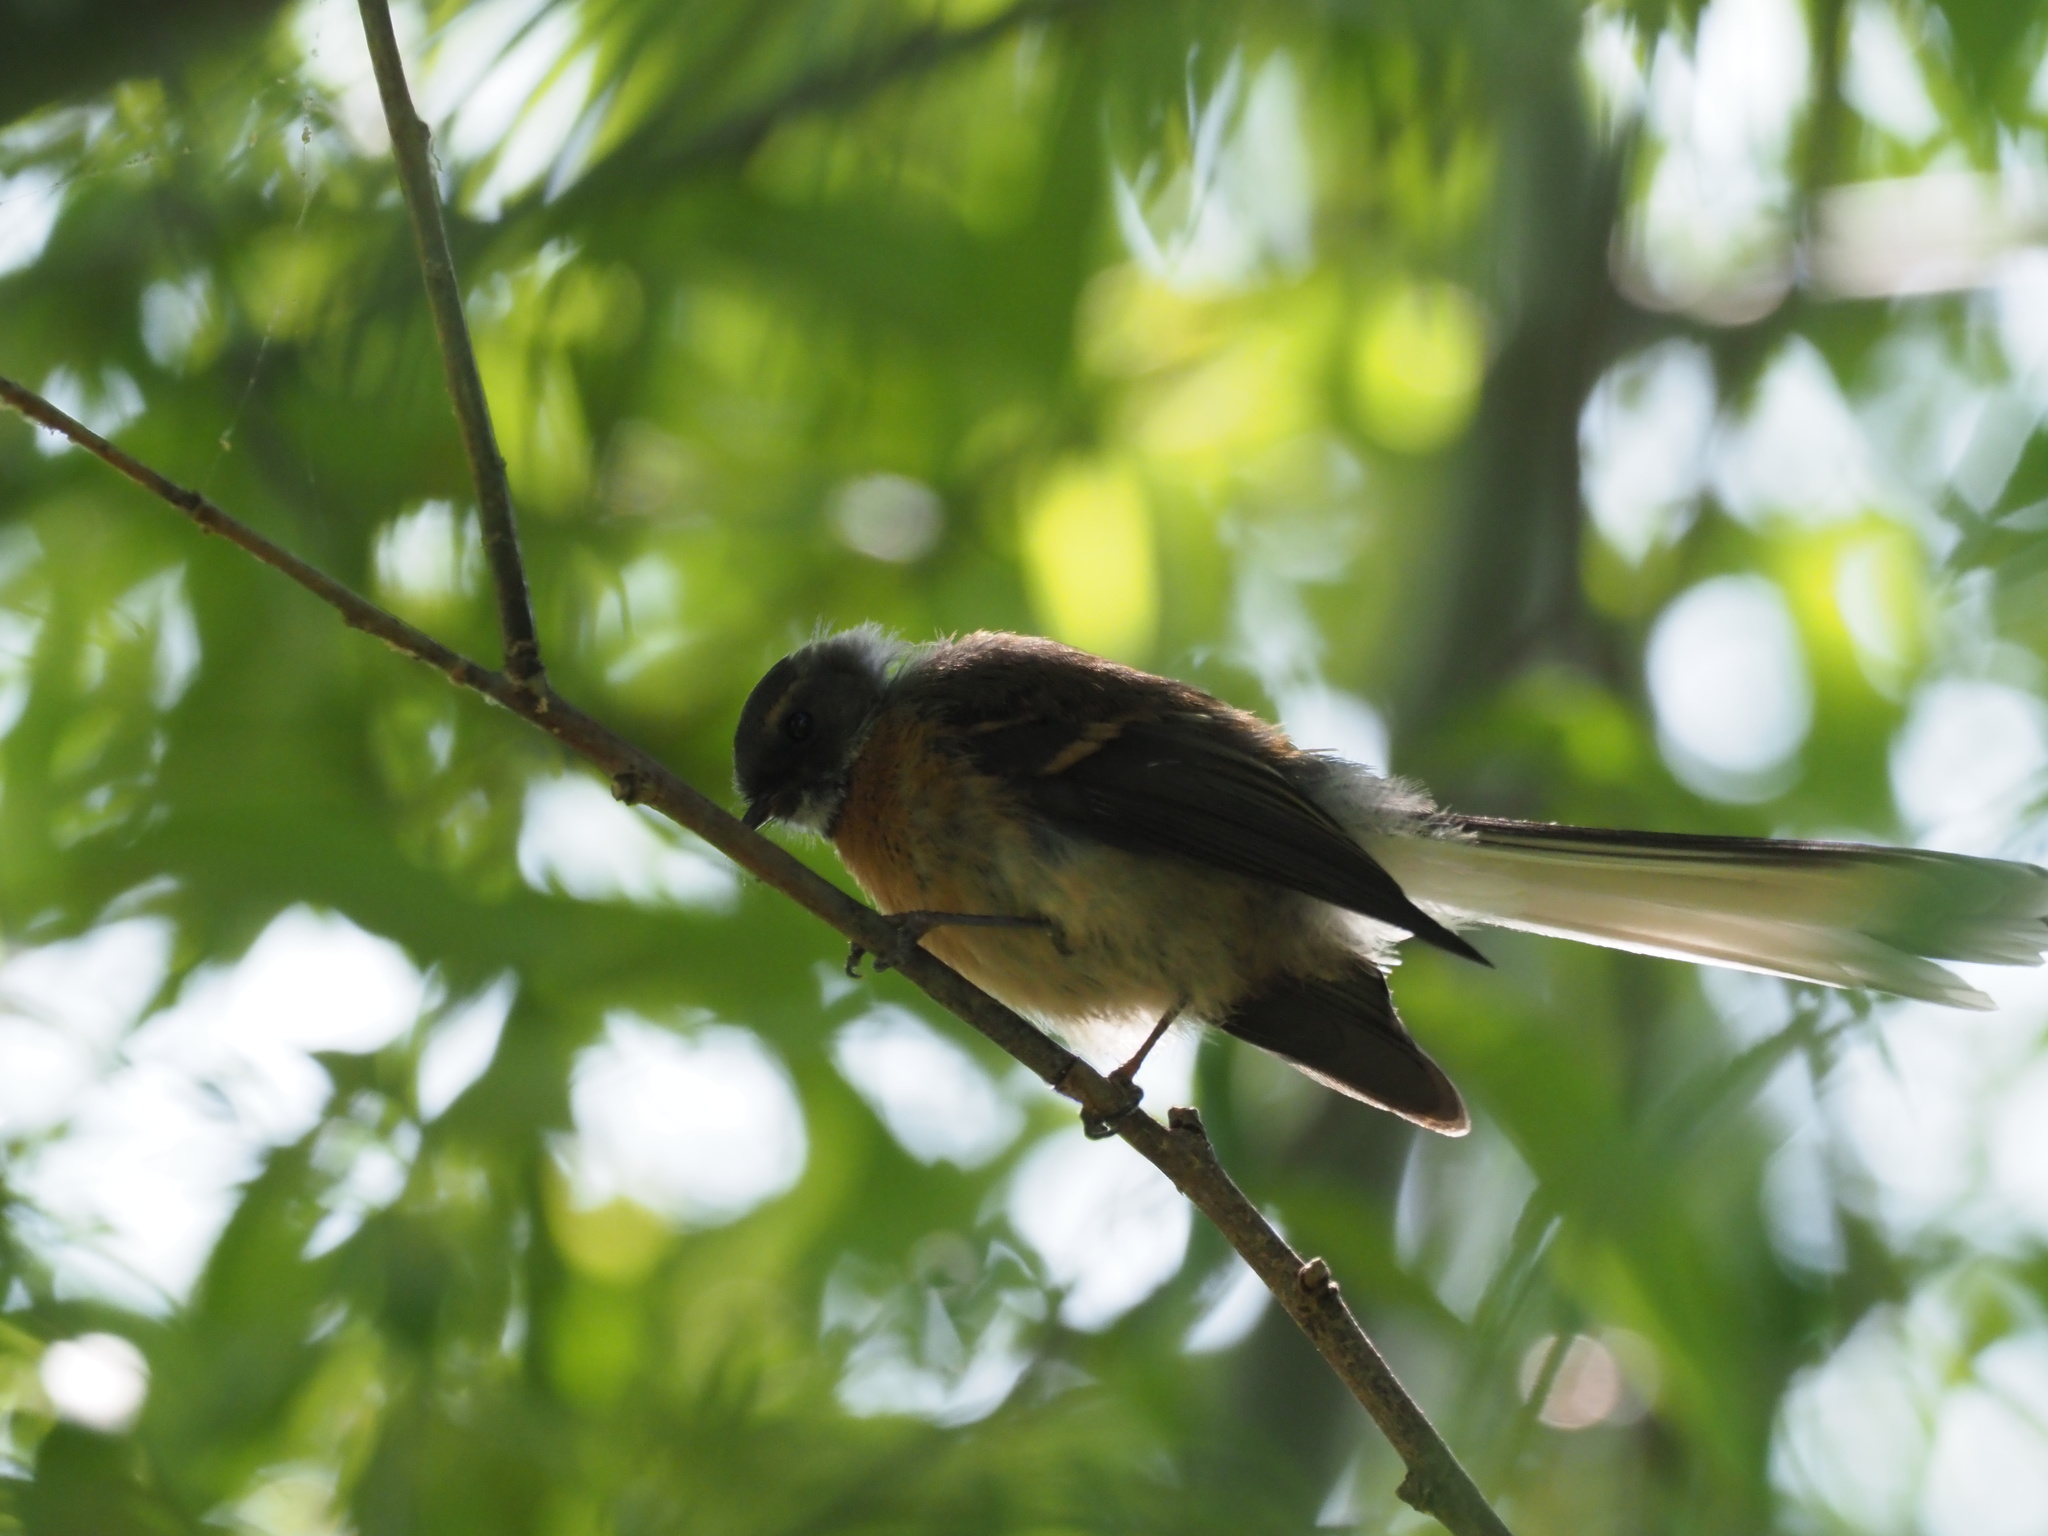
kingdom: Animalia
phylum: Chordata
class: Aves
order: Passeriformes
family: Rhipiduridae
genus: Rhipidura
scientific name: Rhipidura fuliginosa
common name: New zealand fantail
